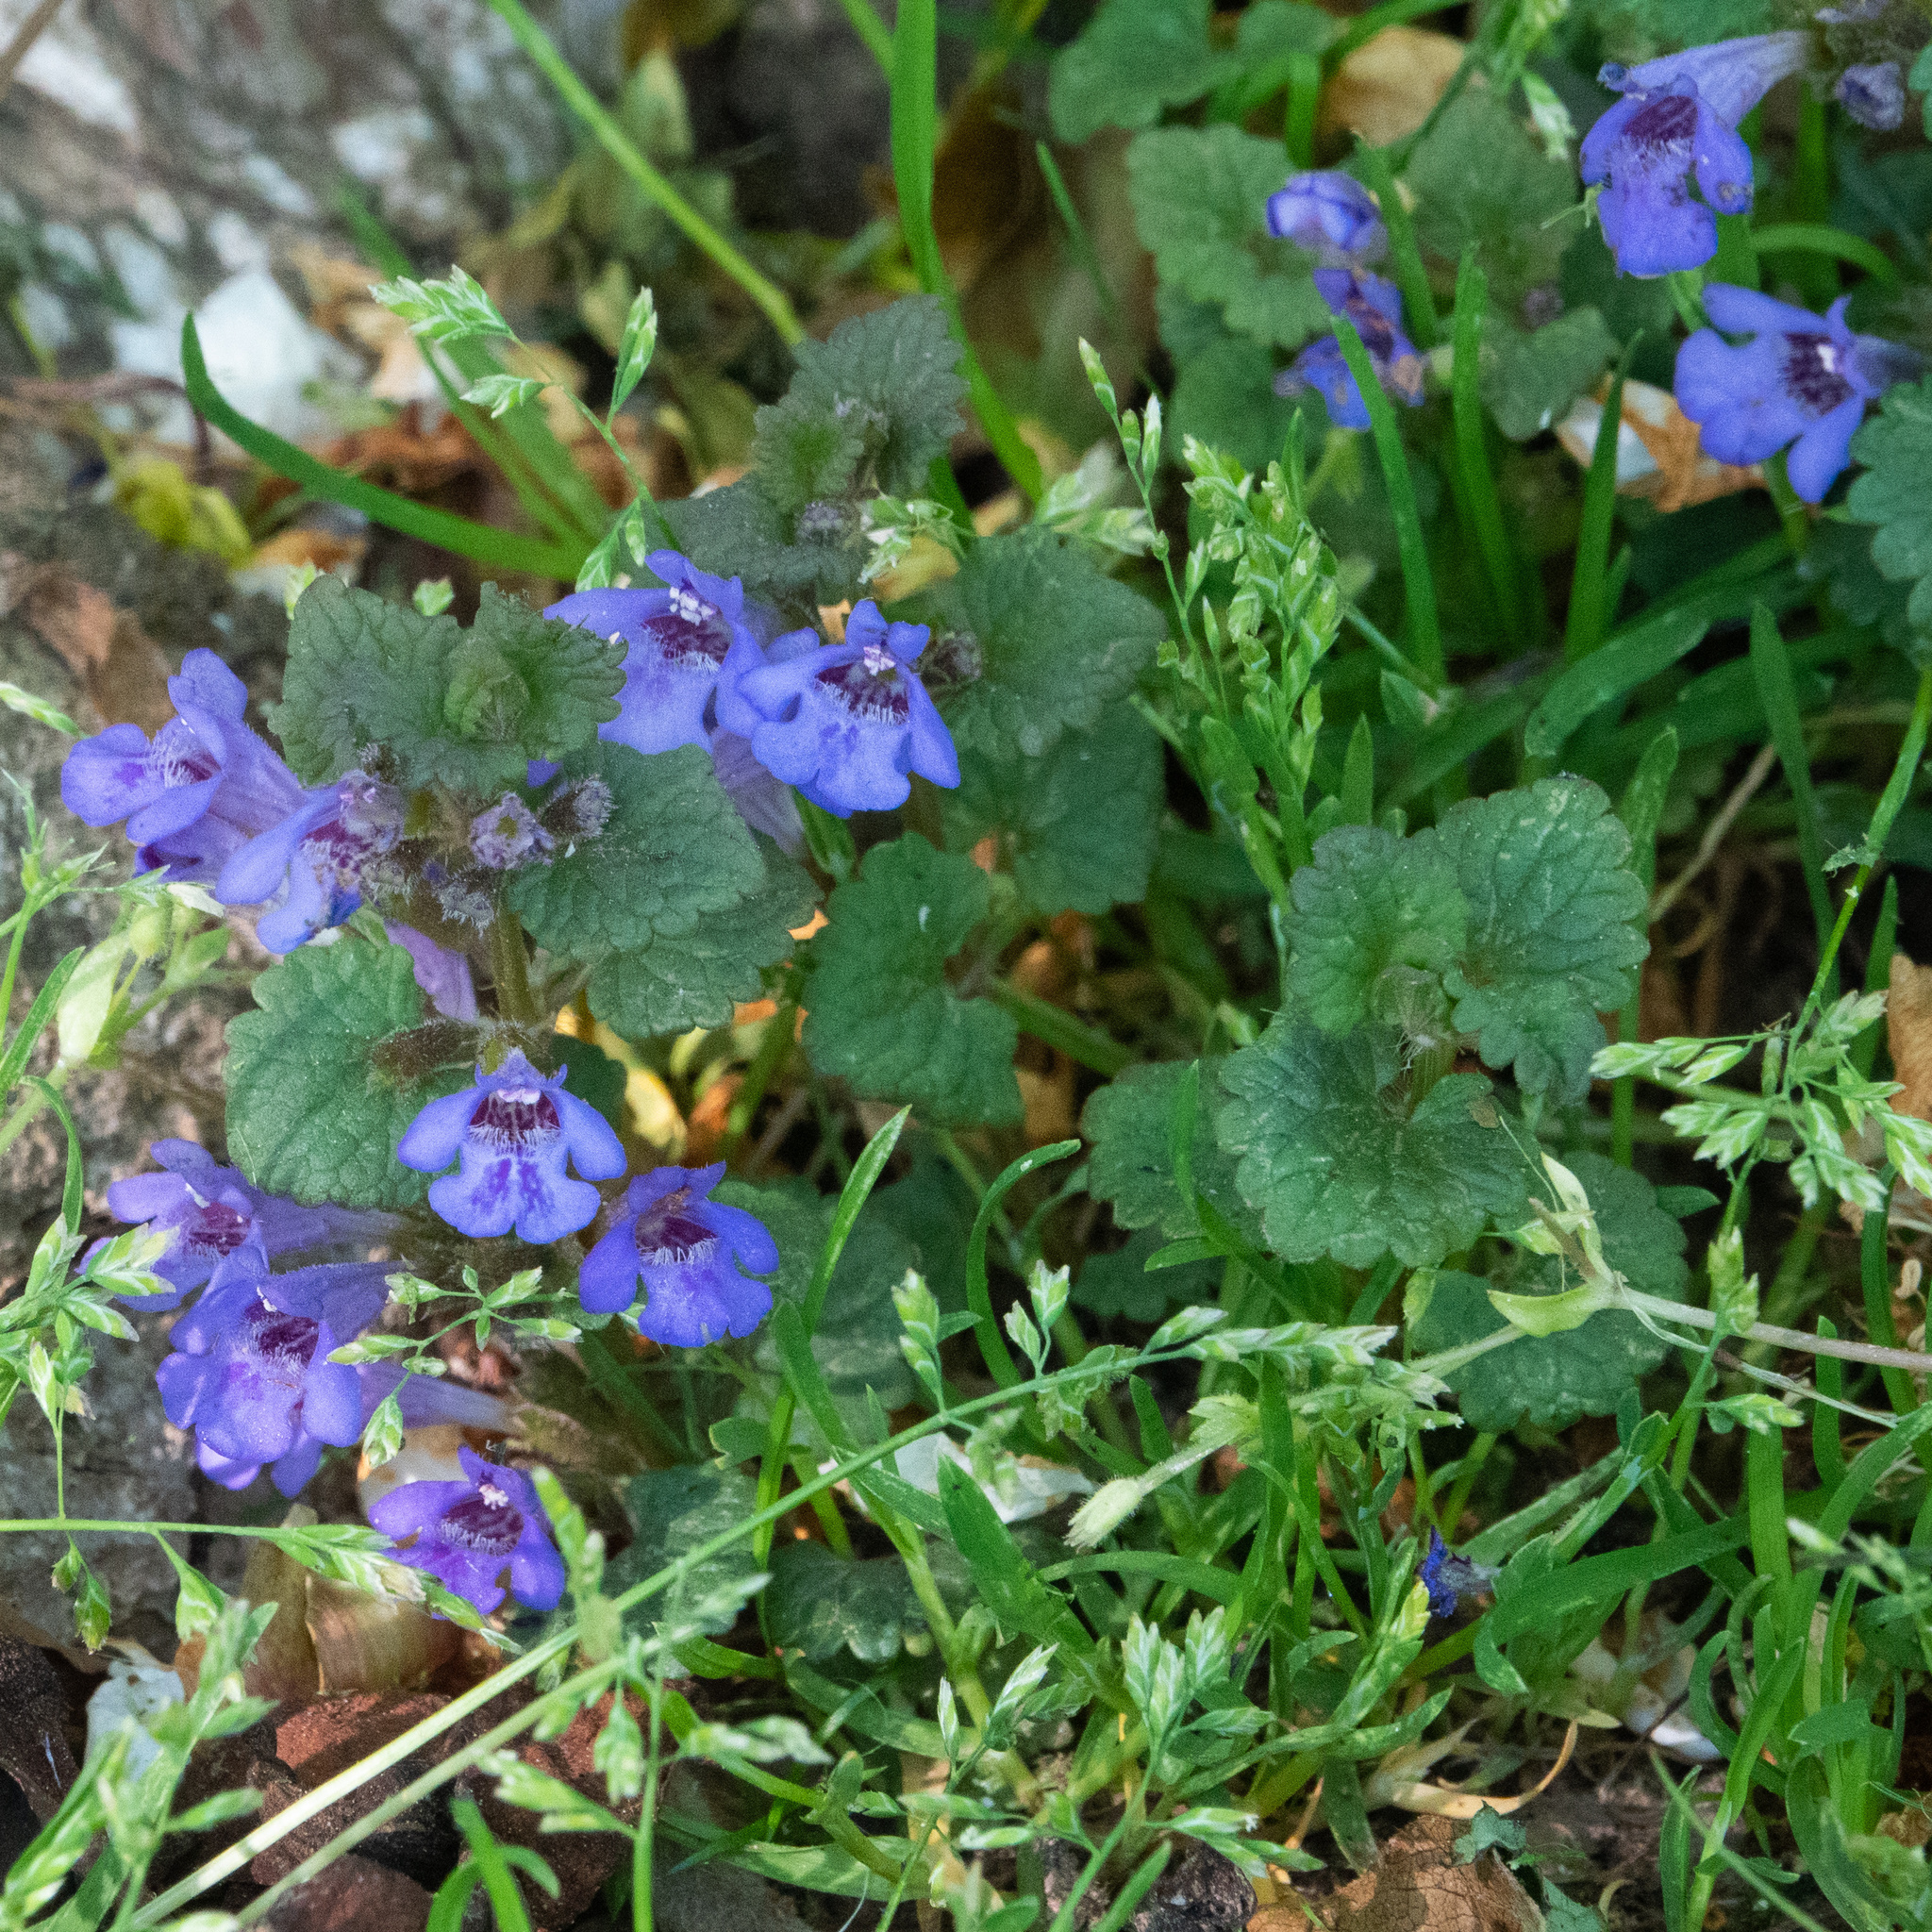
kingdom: Plantae
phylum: Tracheophyta
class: Magnoliopsida
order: Lamiales
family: Lamiaceae
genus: Glechoma
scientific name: Glechoma hederacea
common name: Ground ivy
